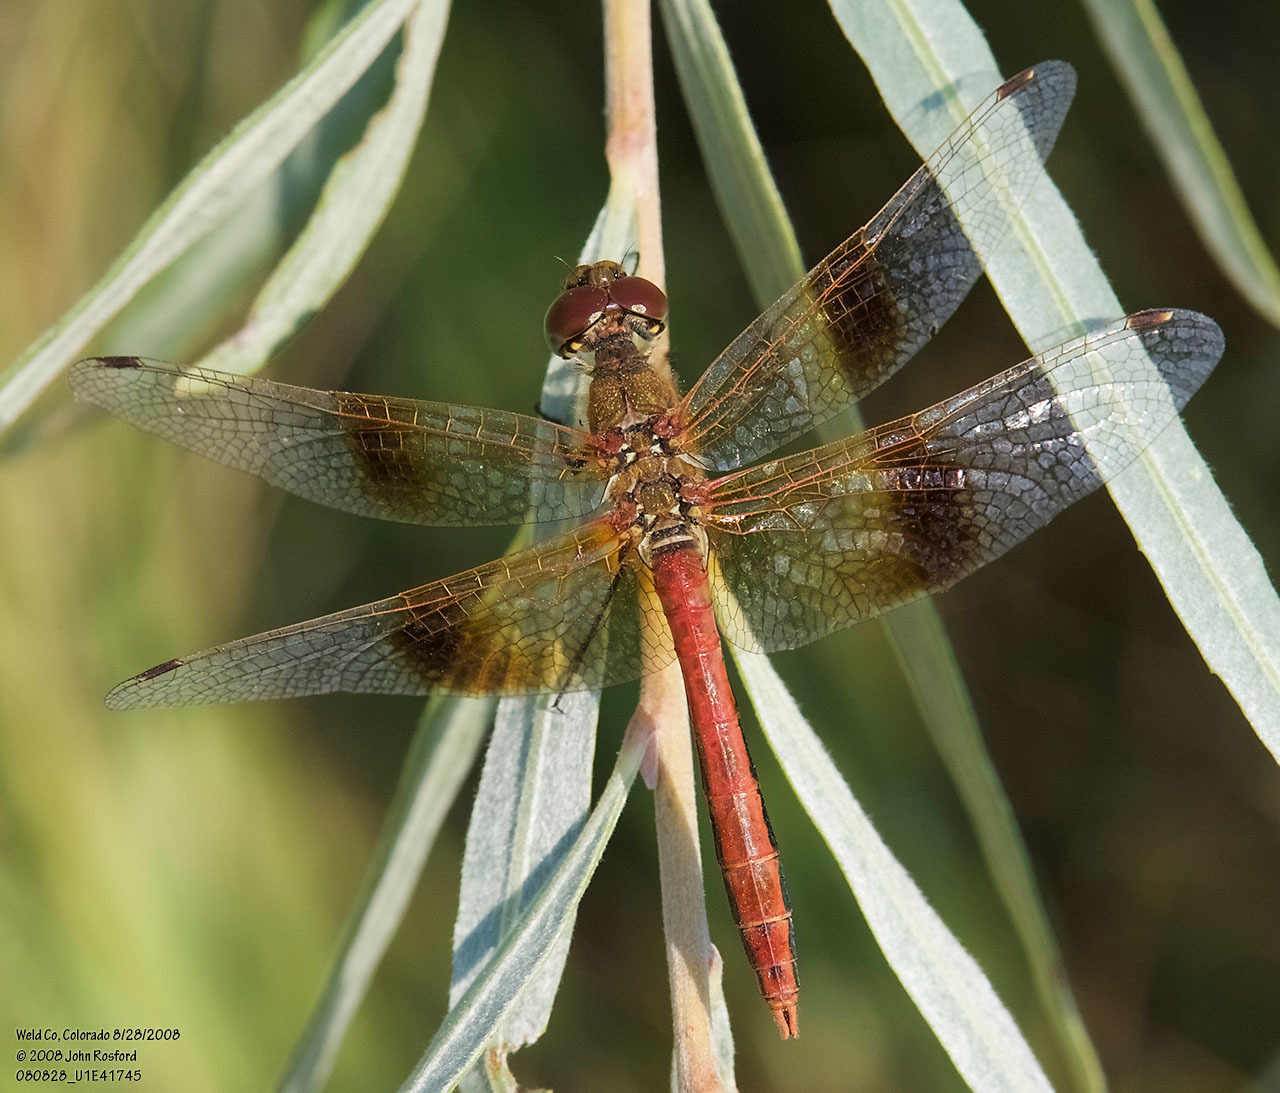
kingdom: Animalia
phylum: Arthropoda
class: Insecta
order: Odonata
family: Libellulidae
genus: Sympetrum
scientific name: Sympetrum semicinctum
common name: Band-winged meadowhawk
